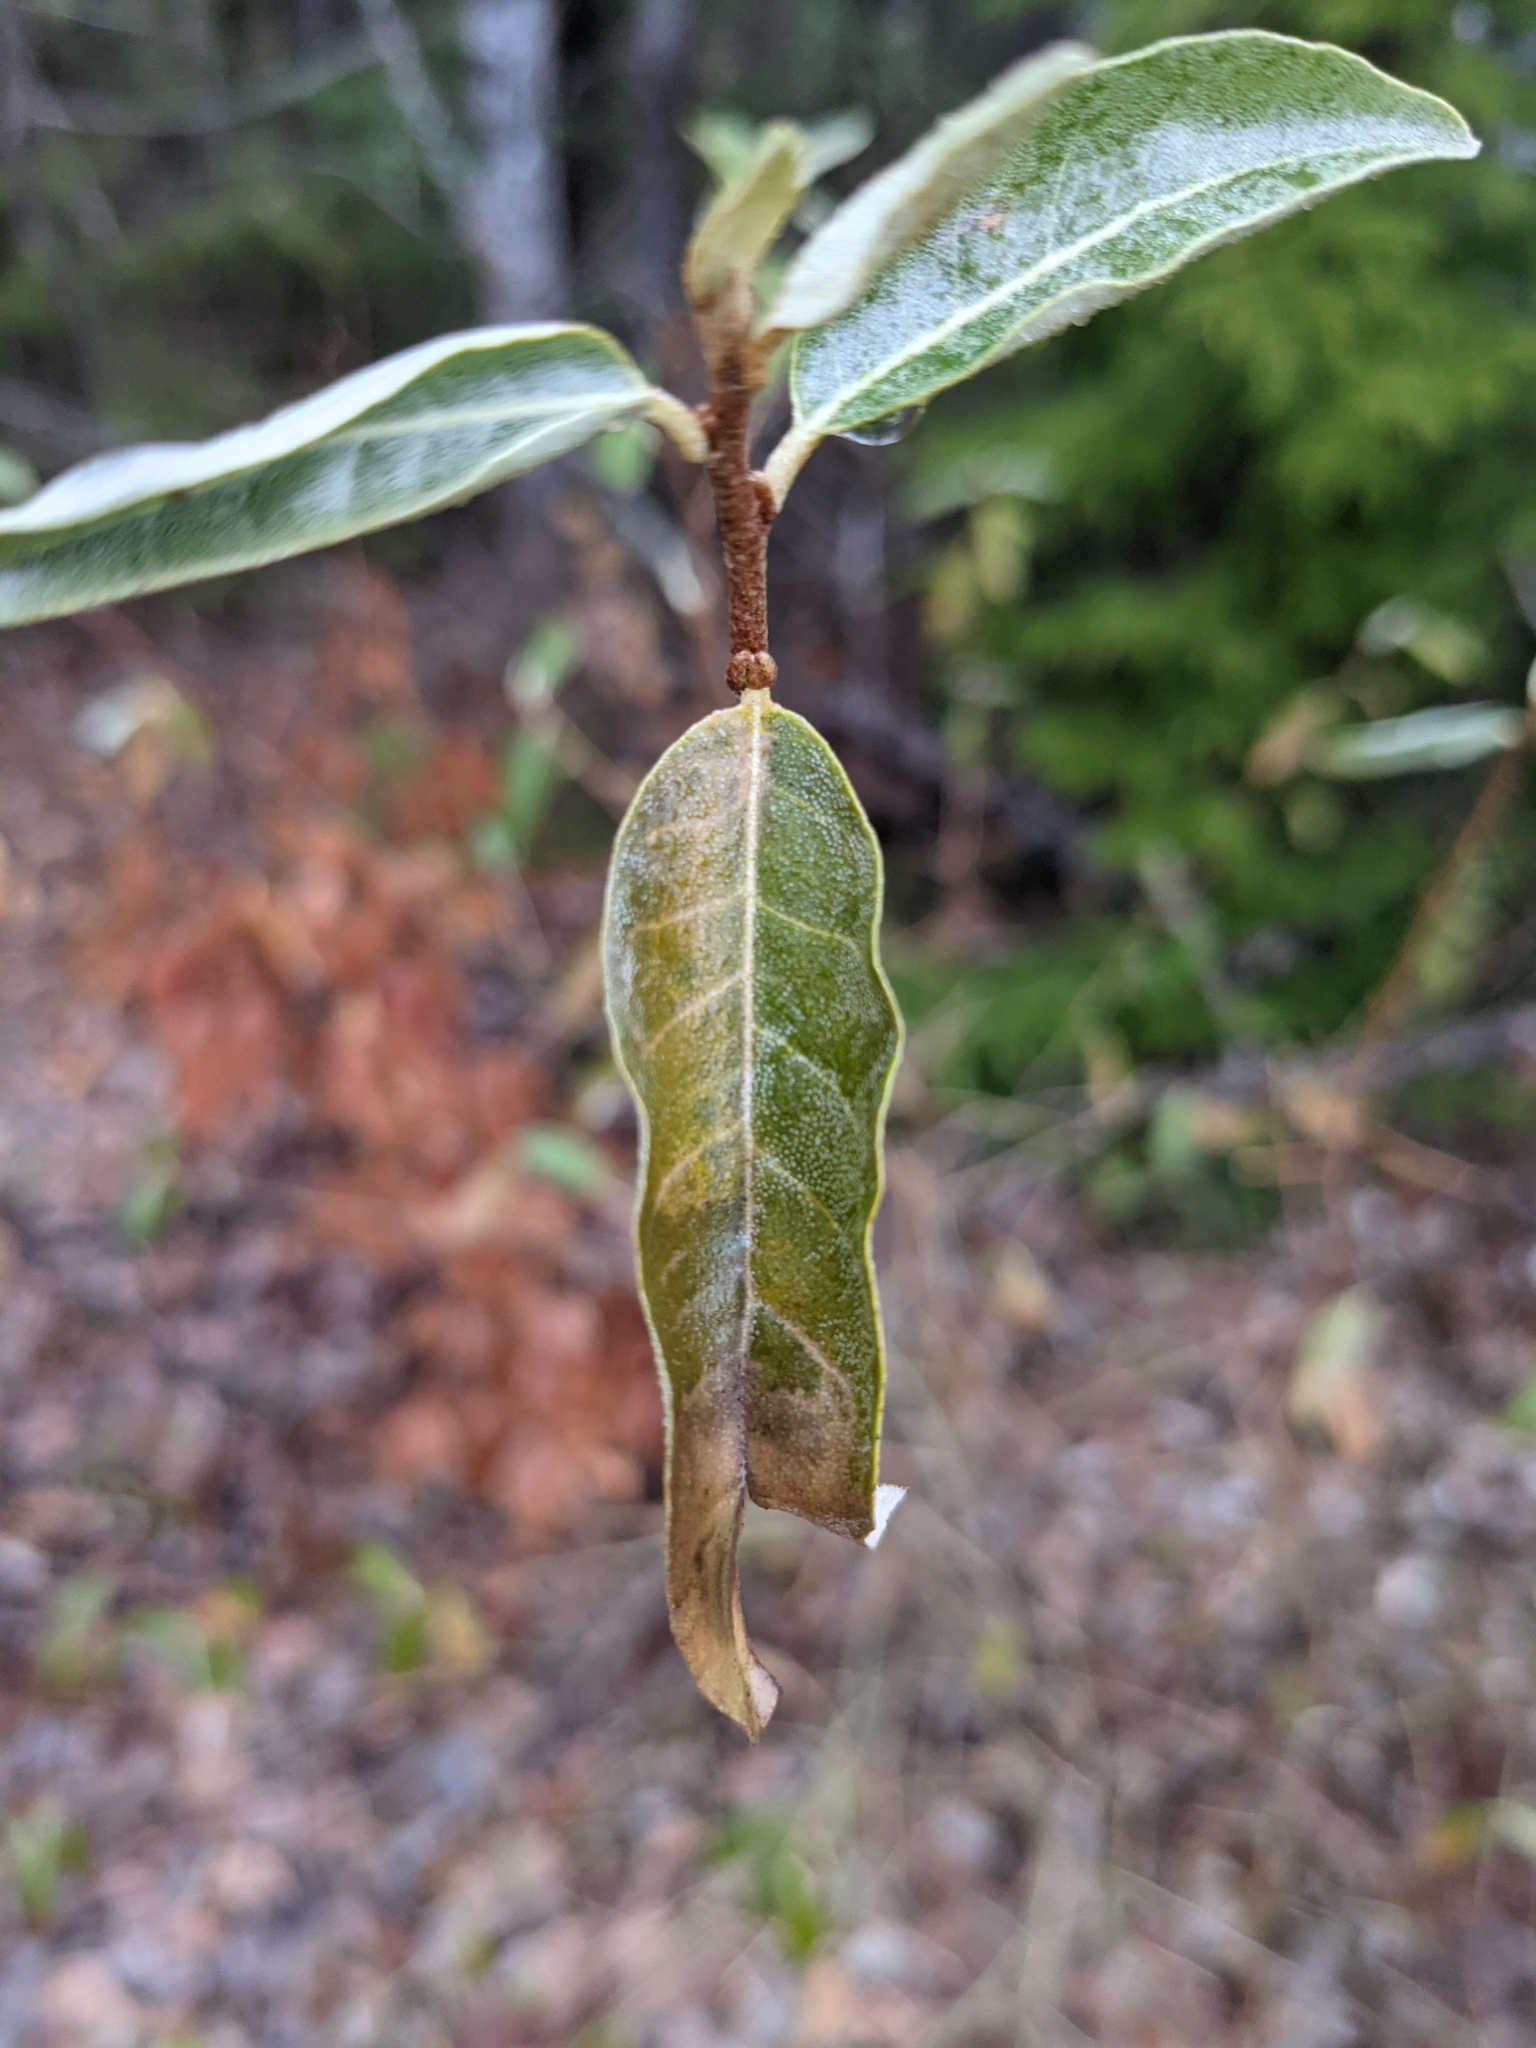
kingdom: Plantae
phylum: Tracheophyta
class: Magnoliopsida
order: Rosales
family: Elaeagnaceae
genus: Elaeagnus
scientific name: Elaeagnus umbellata
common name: Autumn olive
